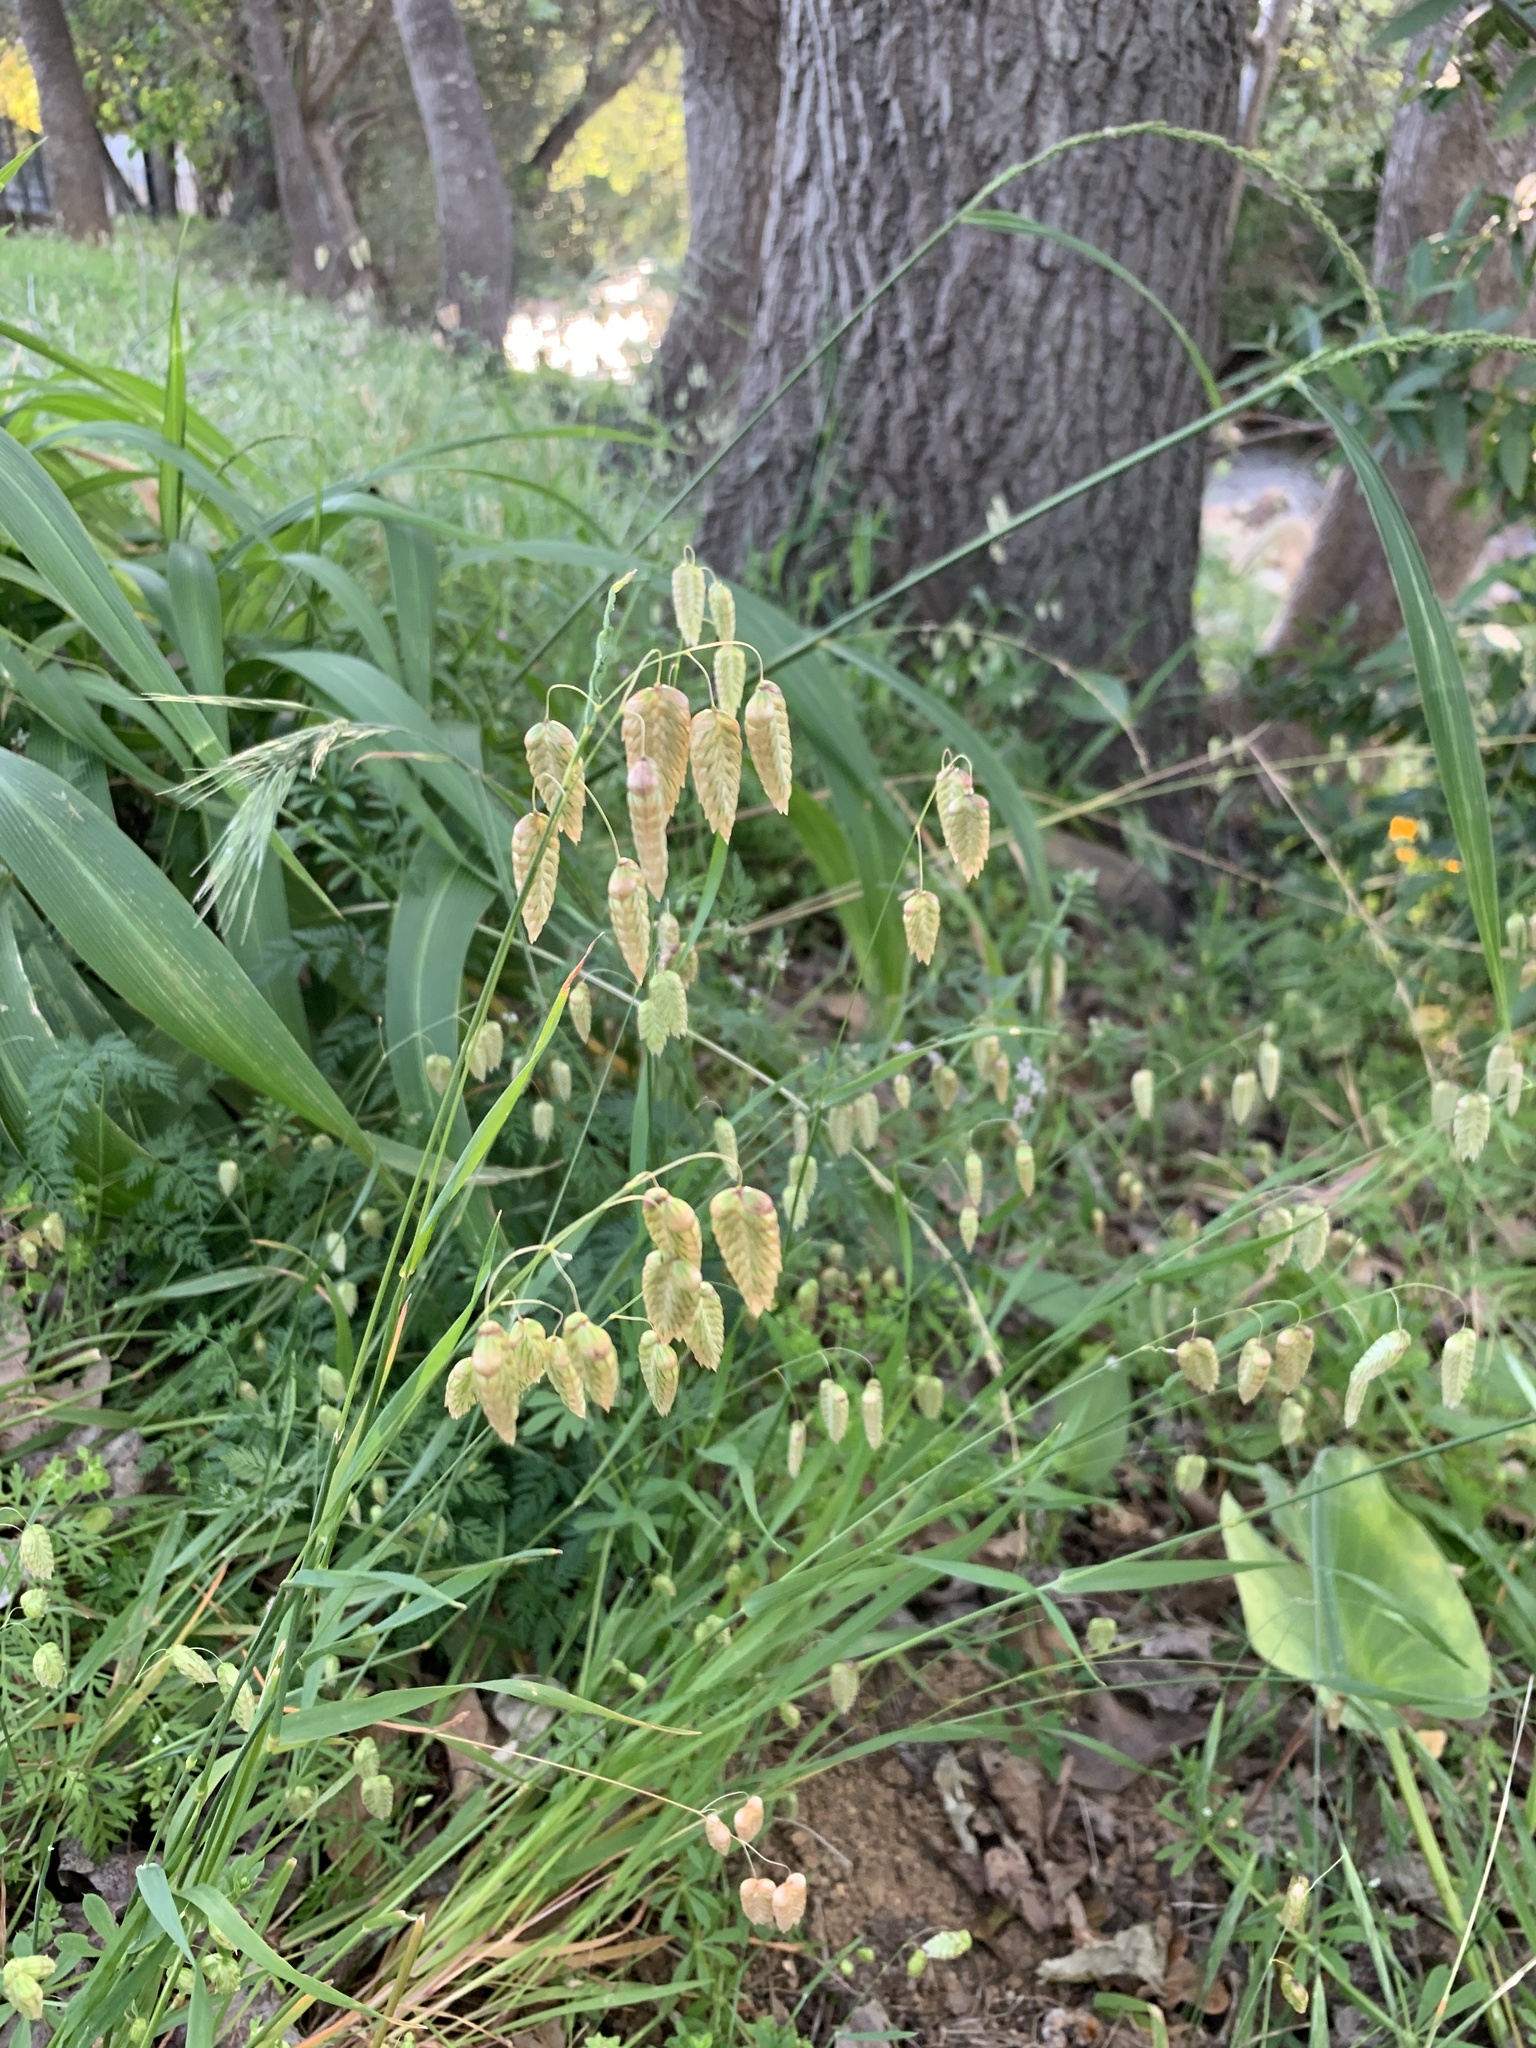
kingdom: Plantae
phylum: Tracheophyta
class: Liliopsida
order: Poales
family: Poaceae
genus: Briza
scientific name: Briza maxima
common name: Big quakinggrass
